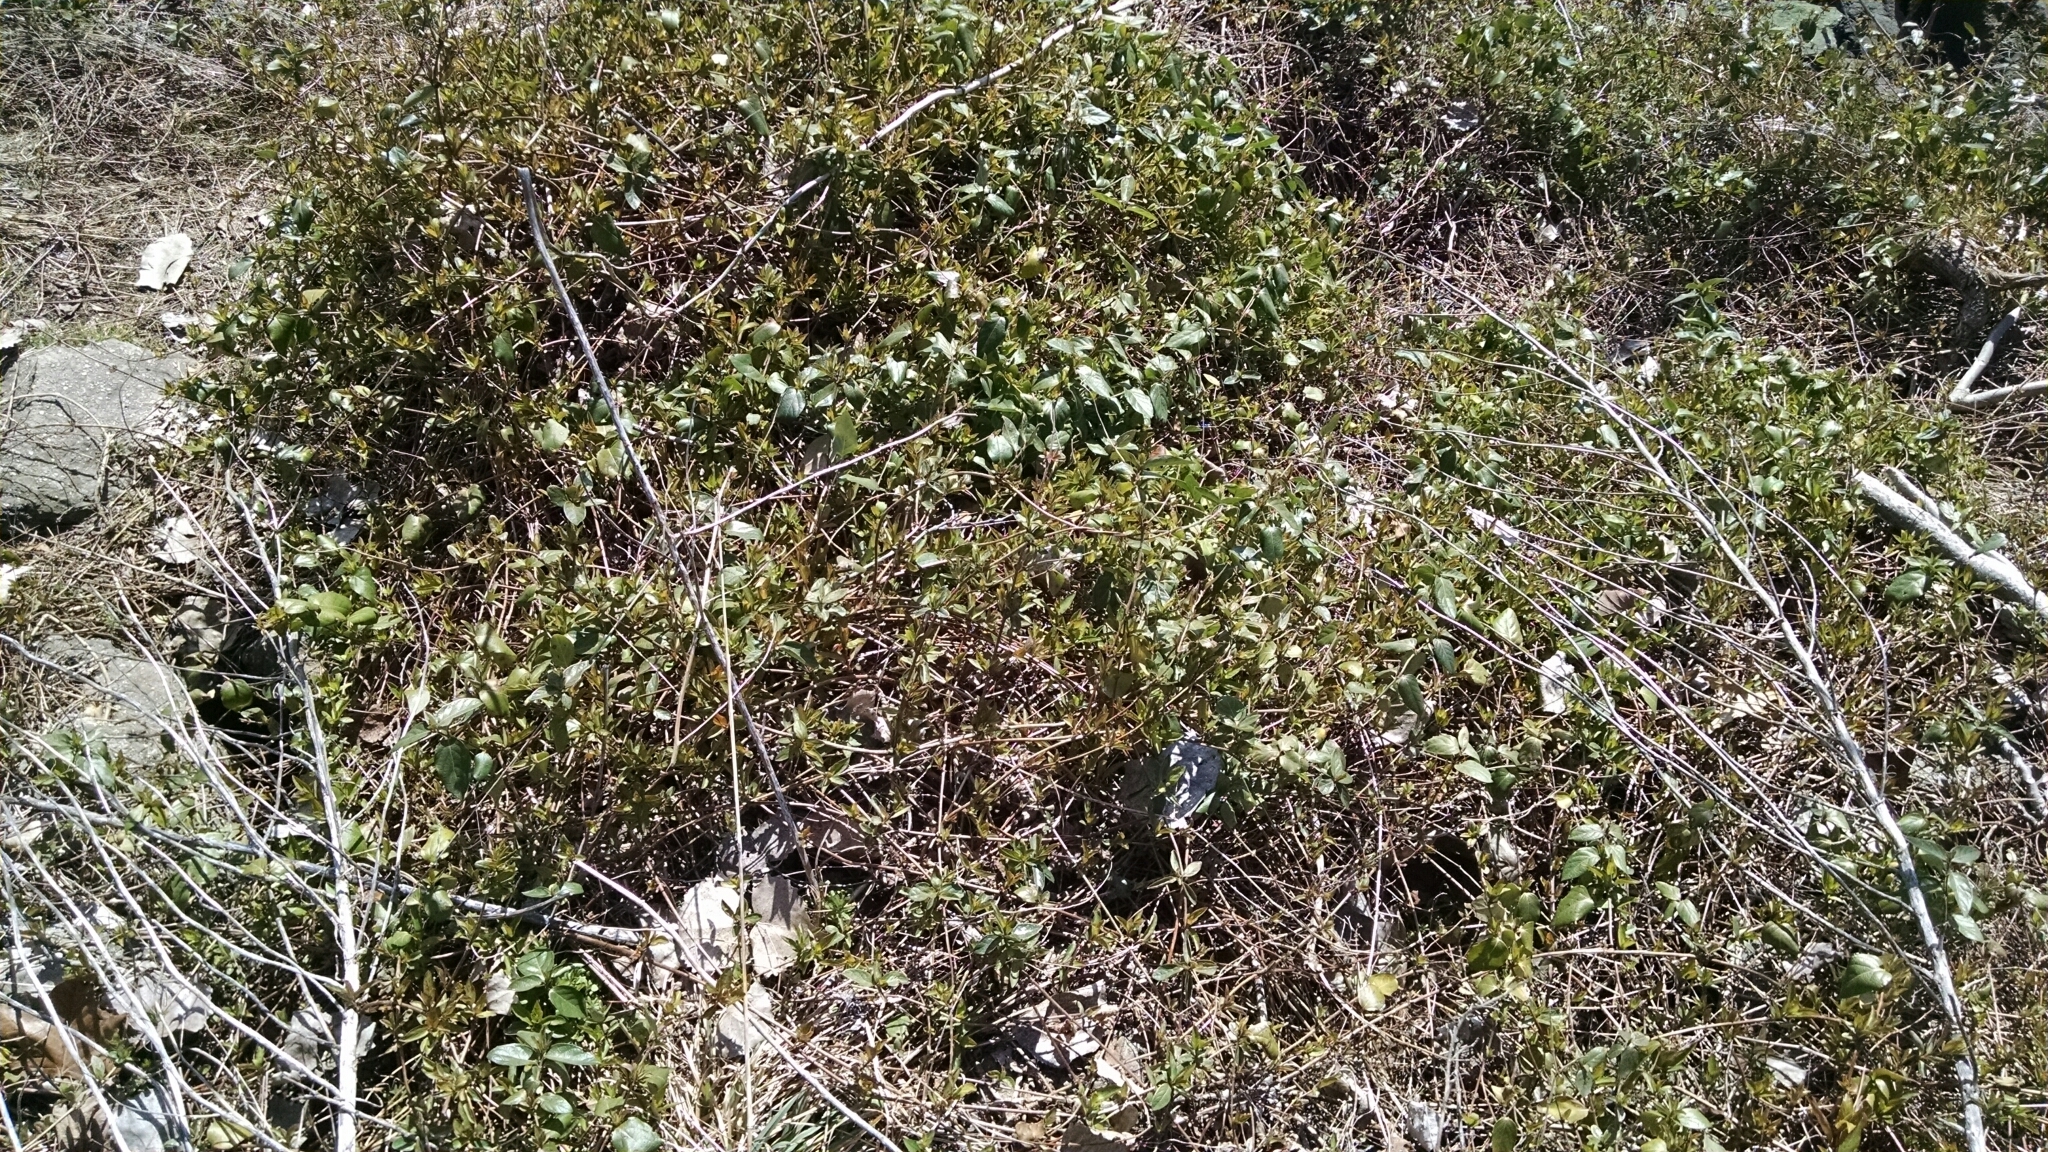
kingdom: Plantae
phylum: Tracheophyta
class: Magnoliopsida
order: Celastrales
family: Celastraceae
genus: Euonymus
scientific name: Euonymus fortunei
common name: Climbing euonymus
